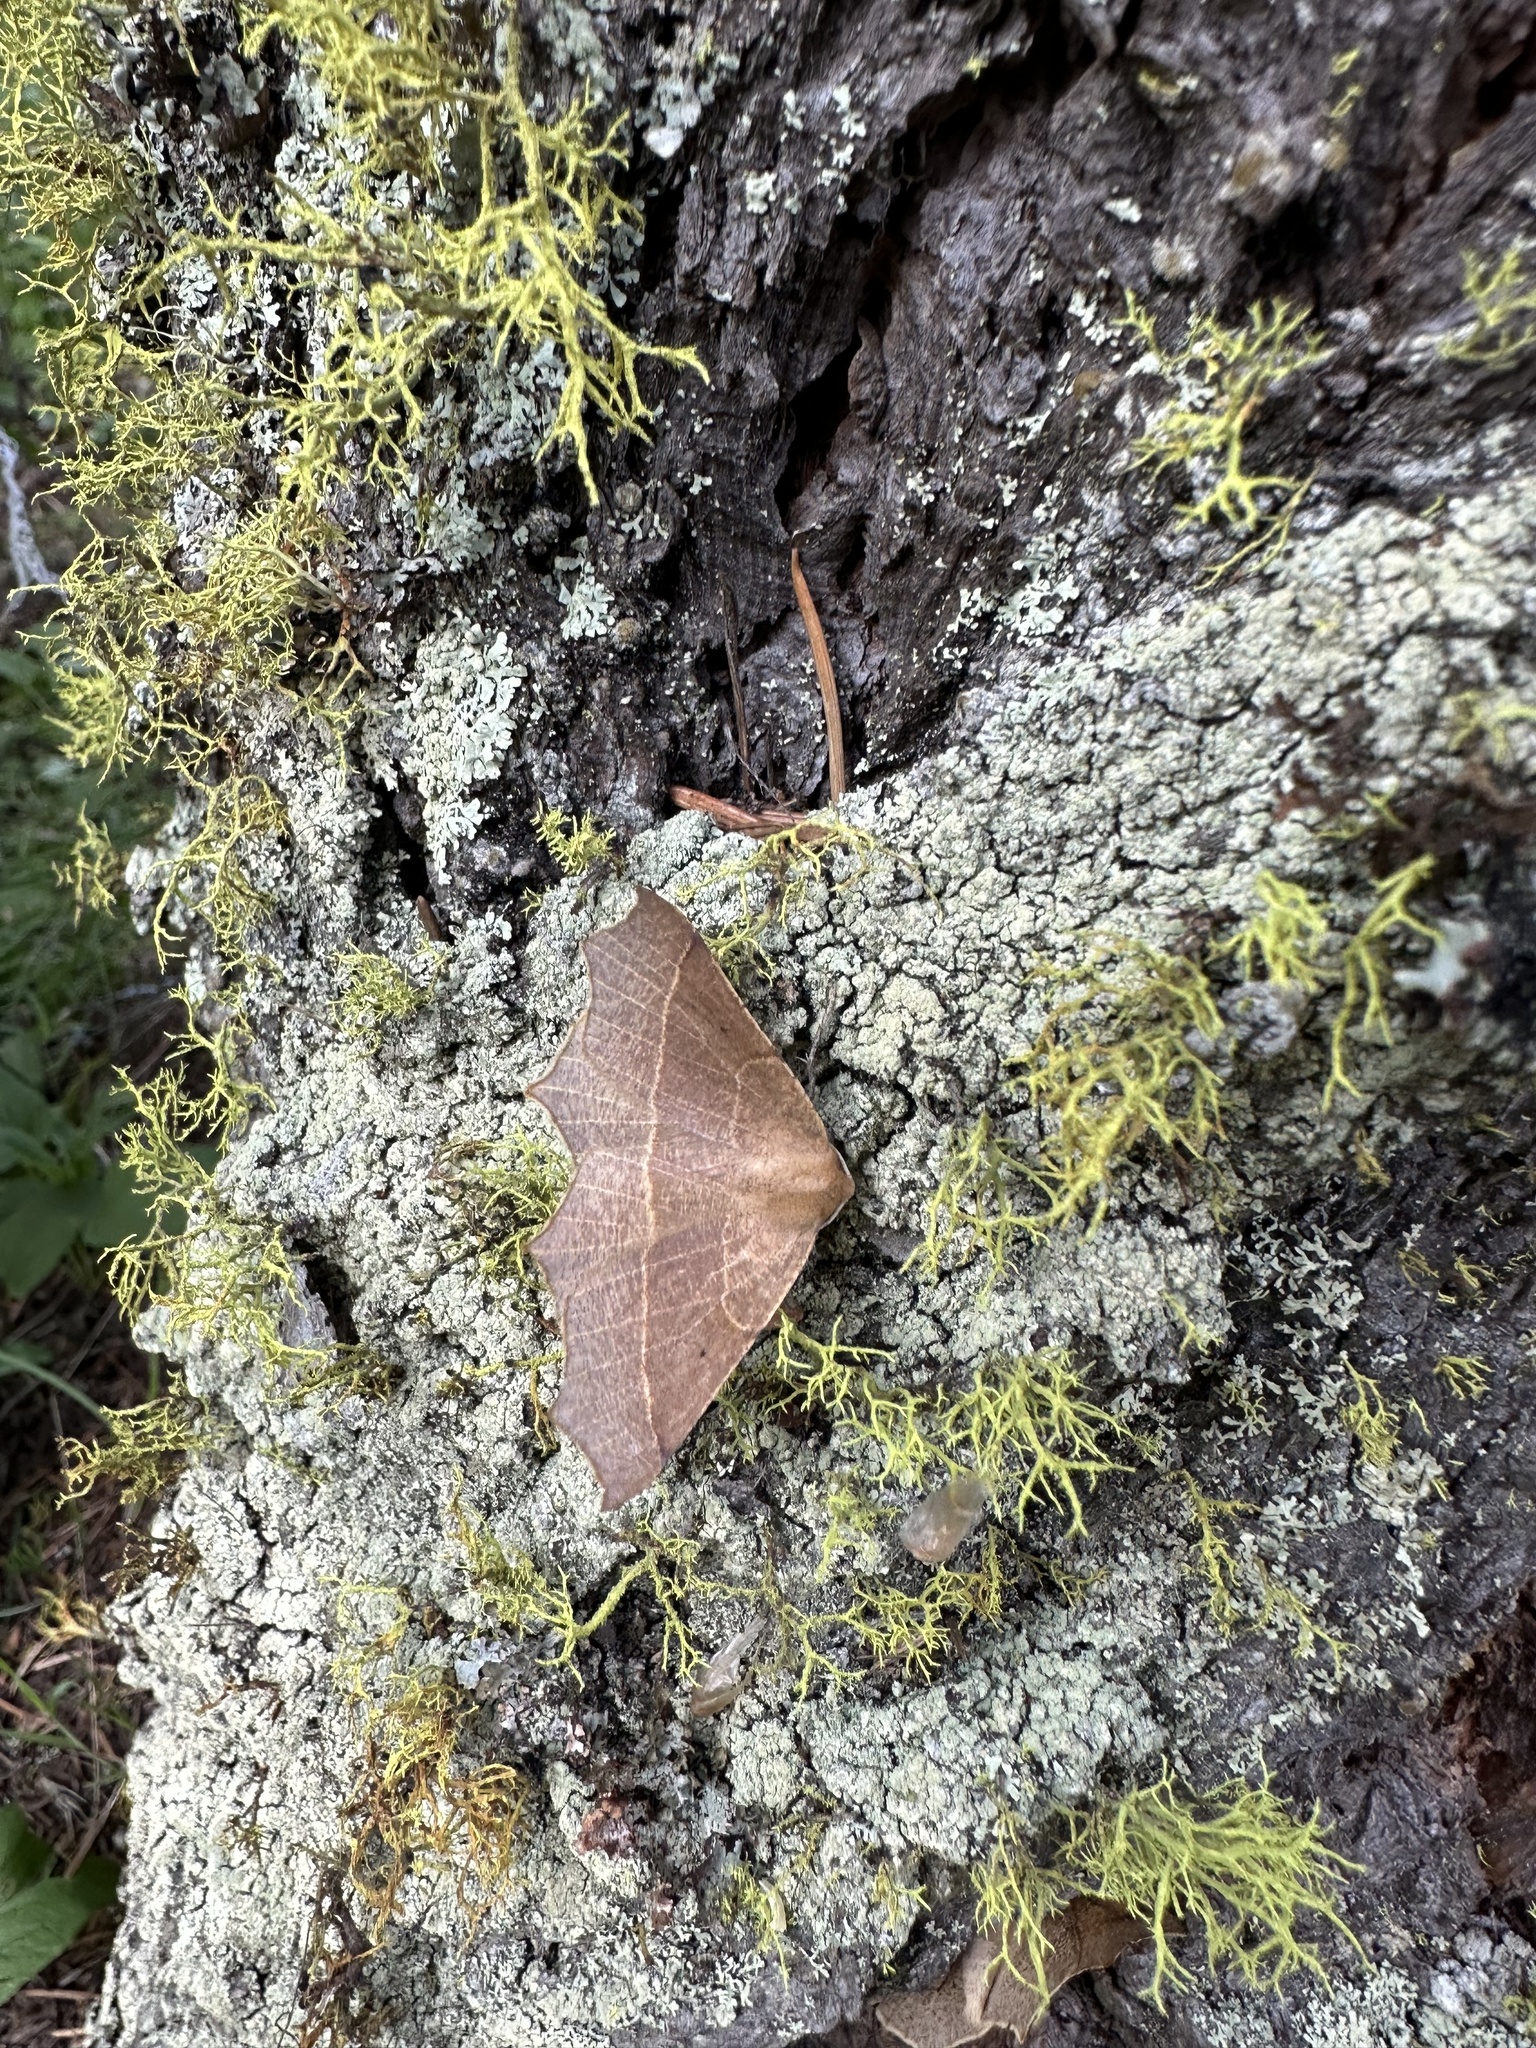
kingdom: Animalia
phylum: Arthropoda
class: Insecta
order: Lepidoptera
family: Geometridae
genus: Tetracis
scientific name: Tetracis cervinaria
